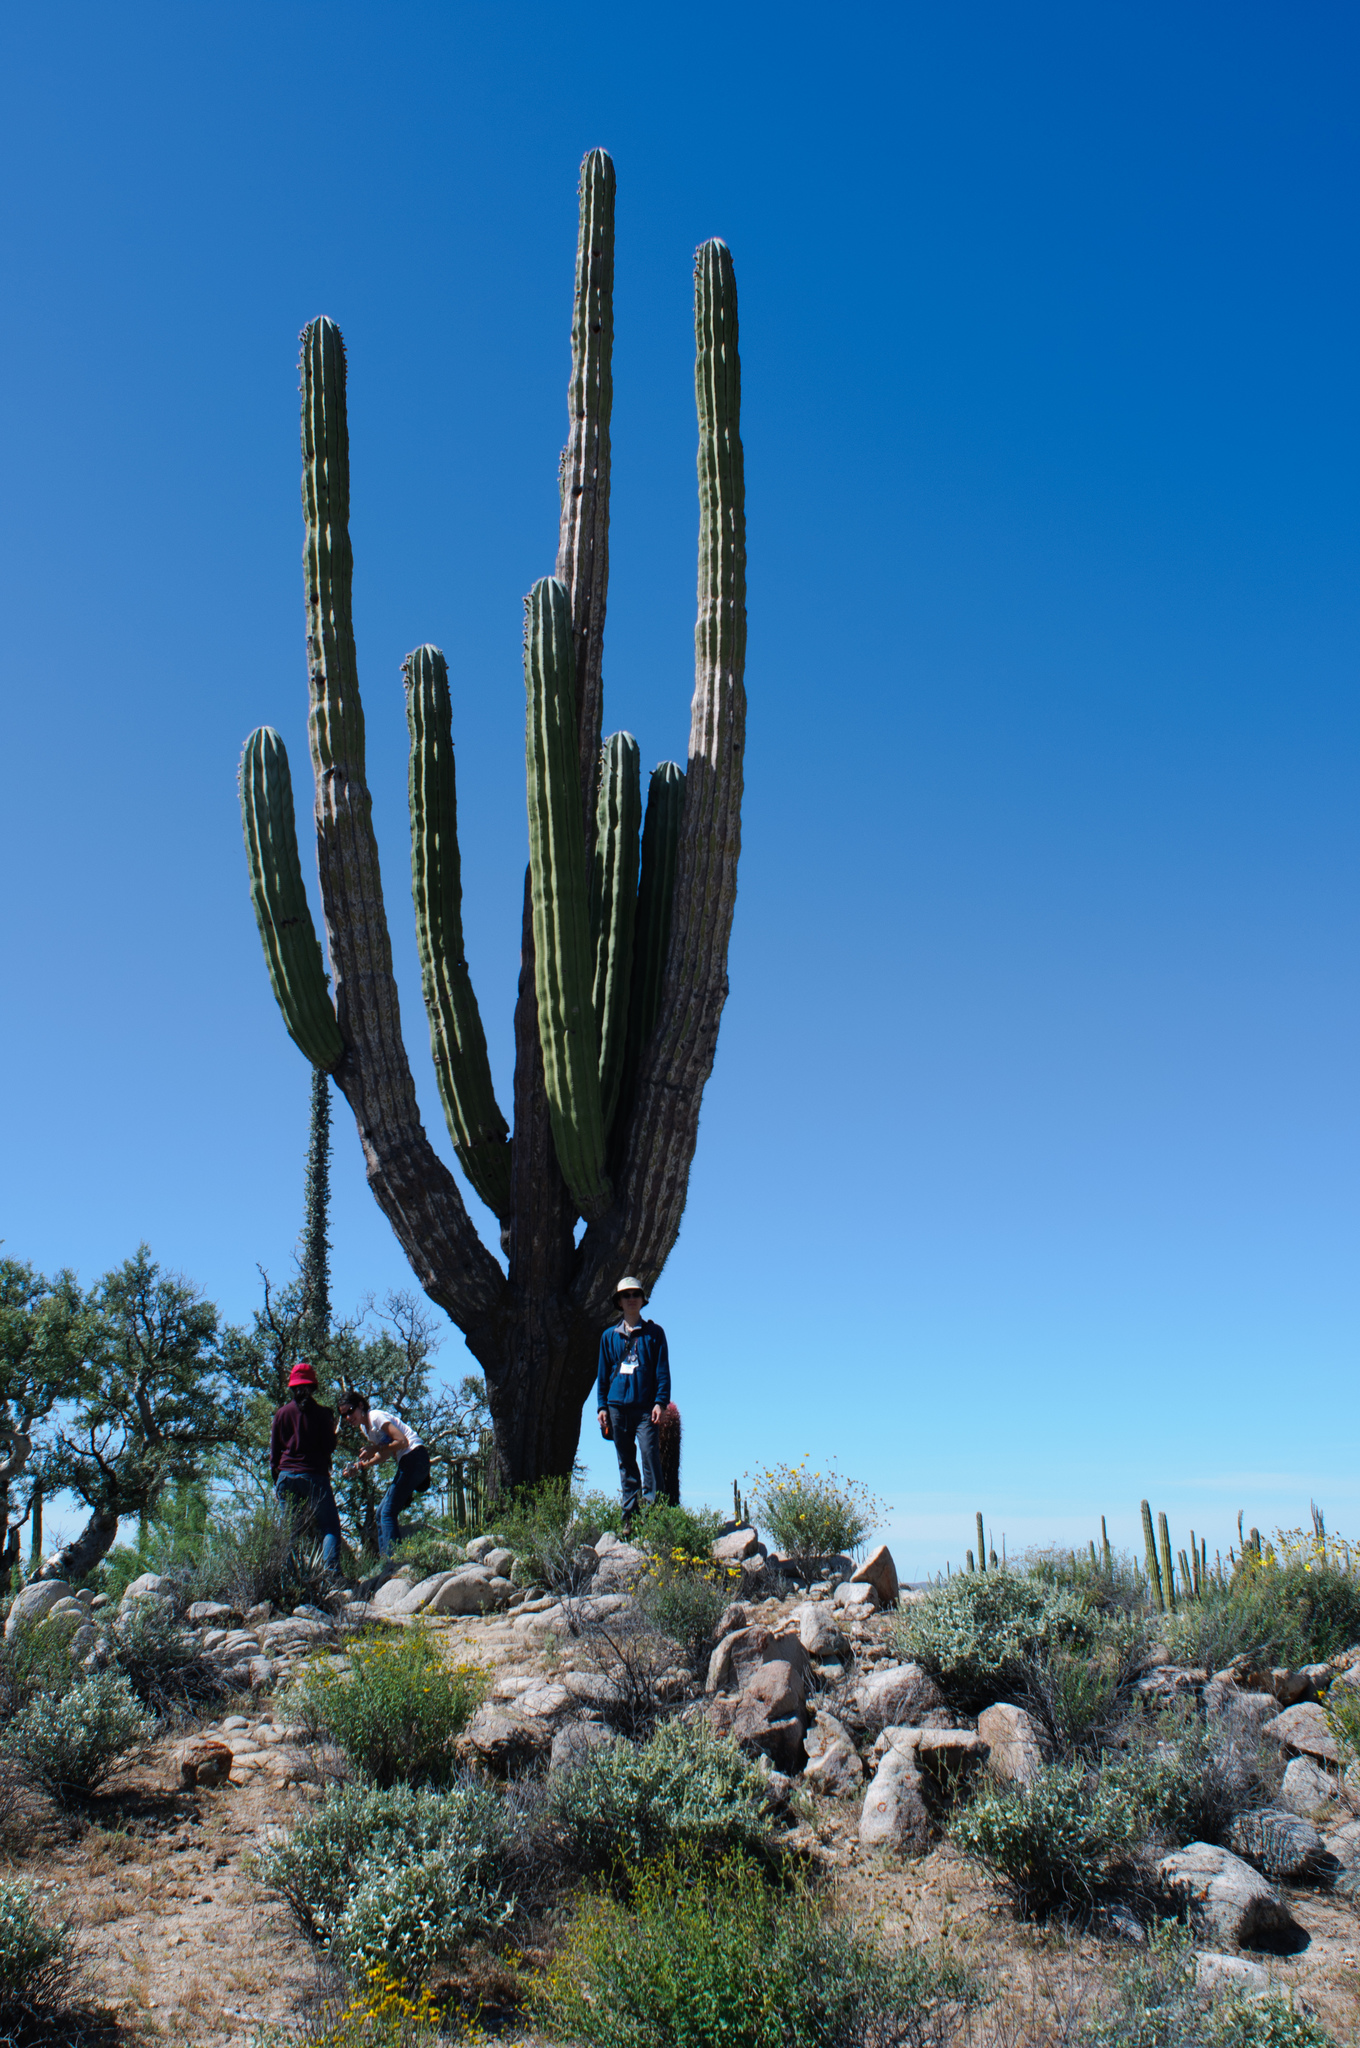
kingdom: Plantae
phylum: Tracheophyta
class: Magnoliopsida
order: Caryophyllales
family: Cactaceae
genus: Pachycereus
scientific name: Pachycereus pringlei
